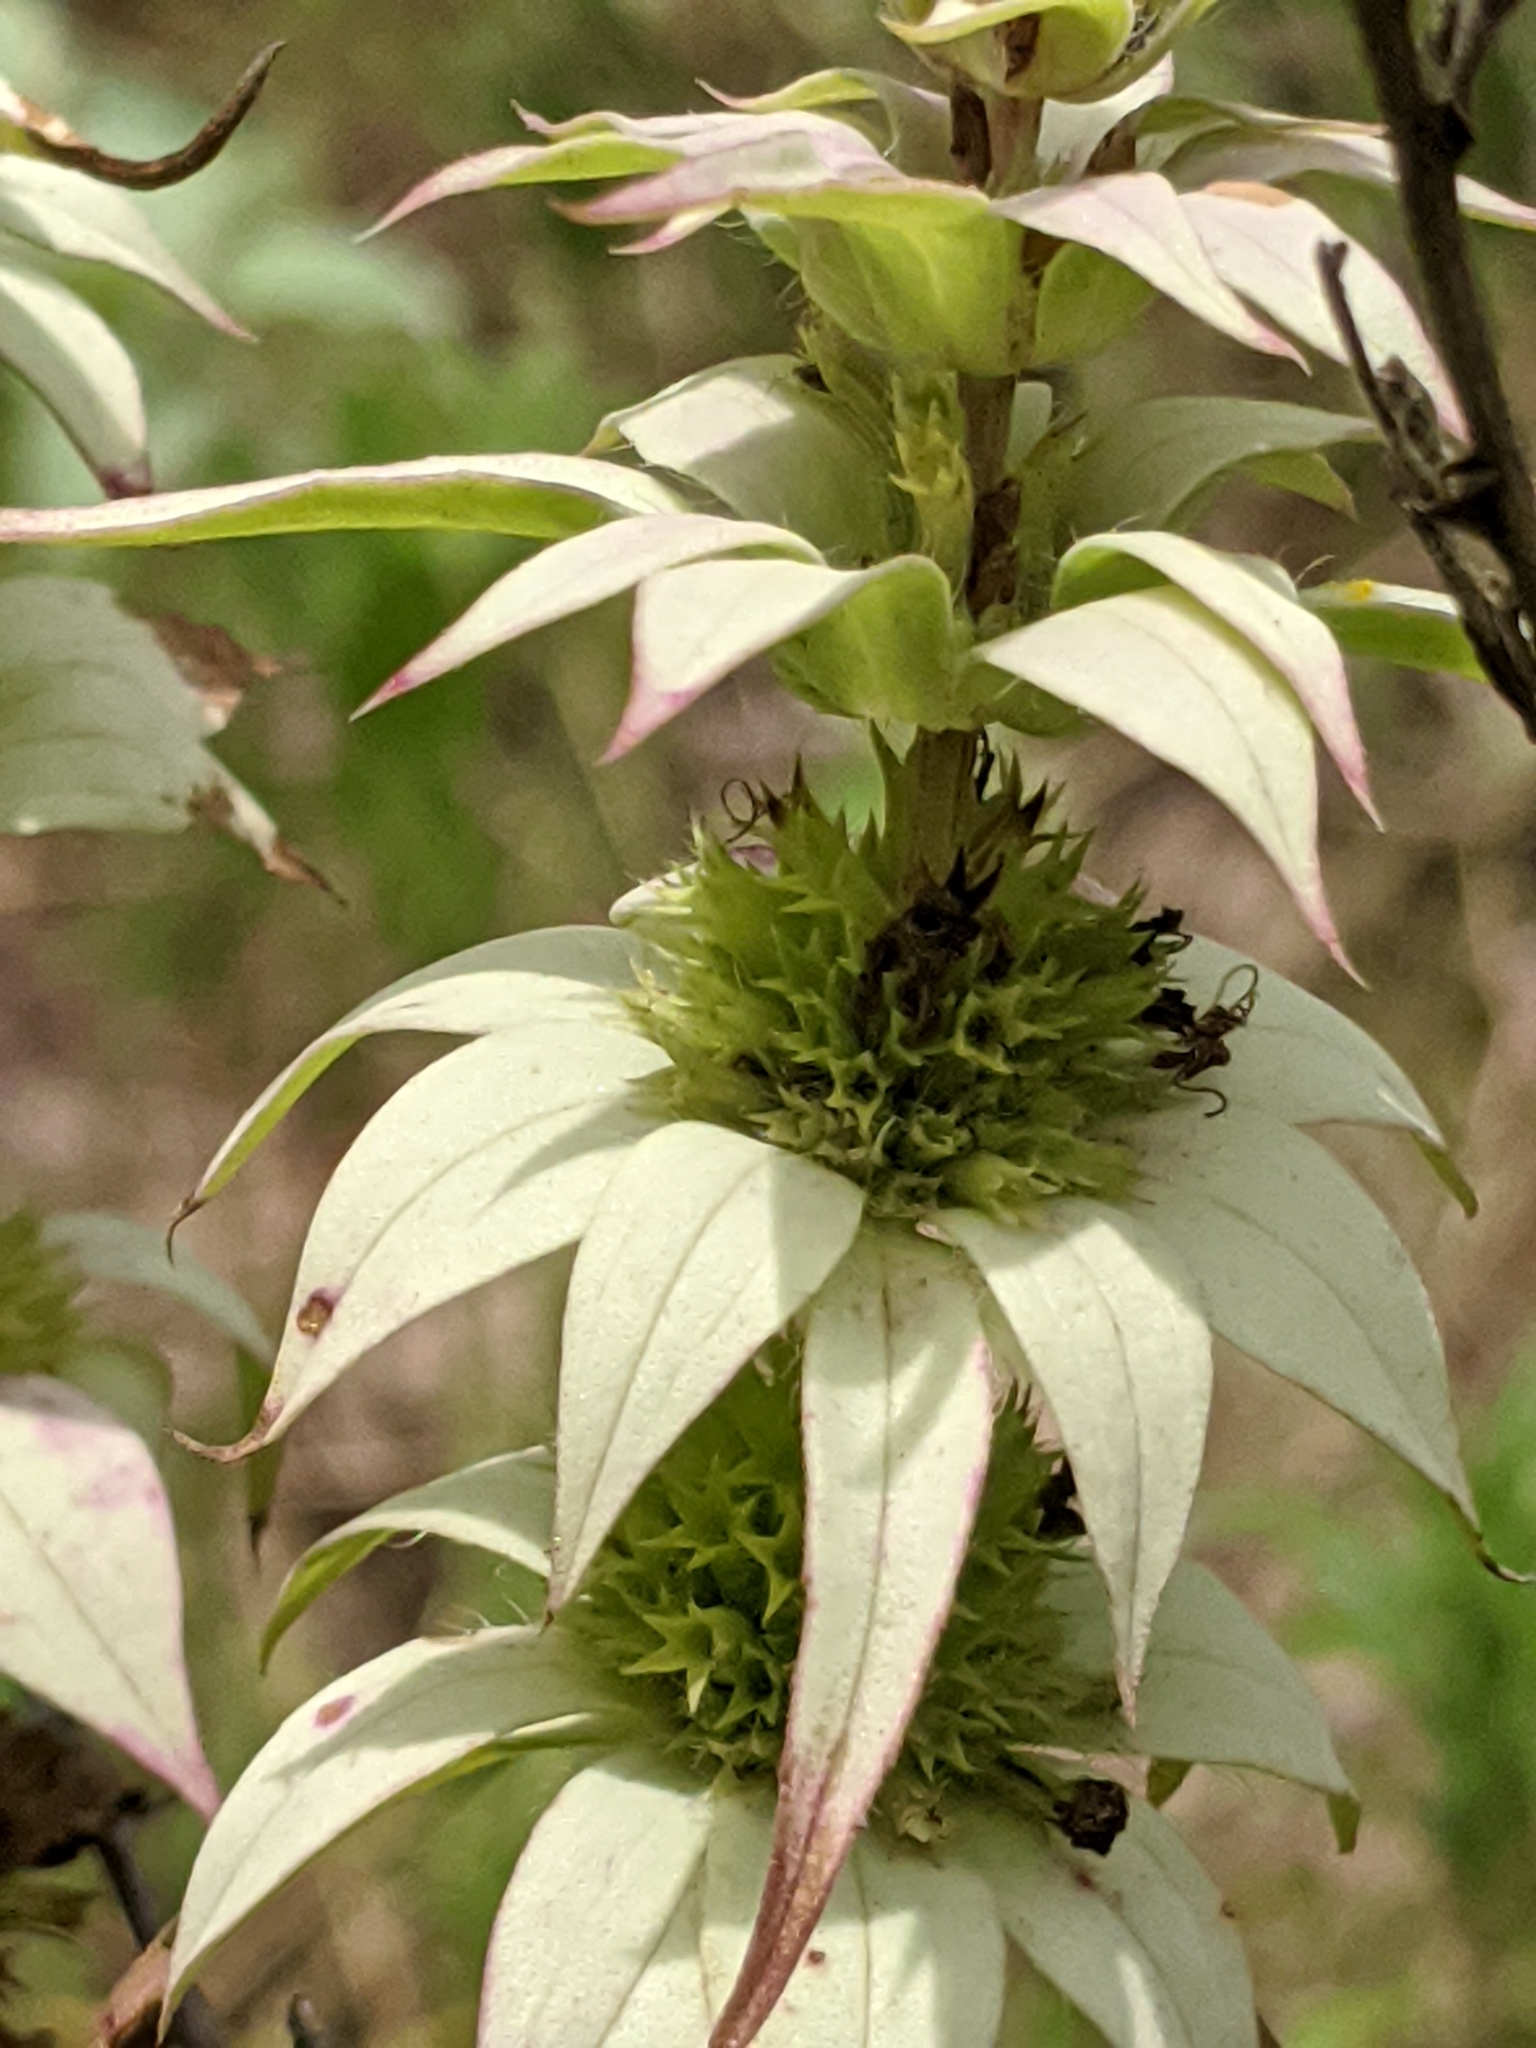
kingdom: Plantae
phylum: Tracheophyta
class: Magnoliopsida
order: Lamiales
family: Lamiaceae
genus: Monarda
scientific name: Monarda punctata
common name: Dotted monarda
